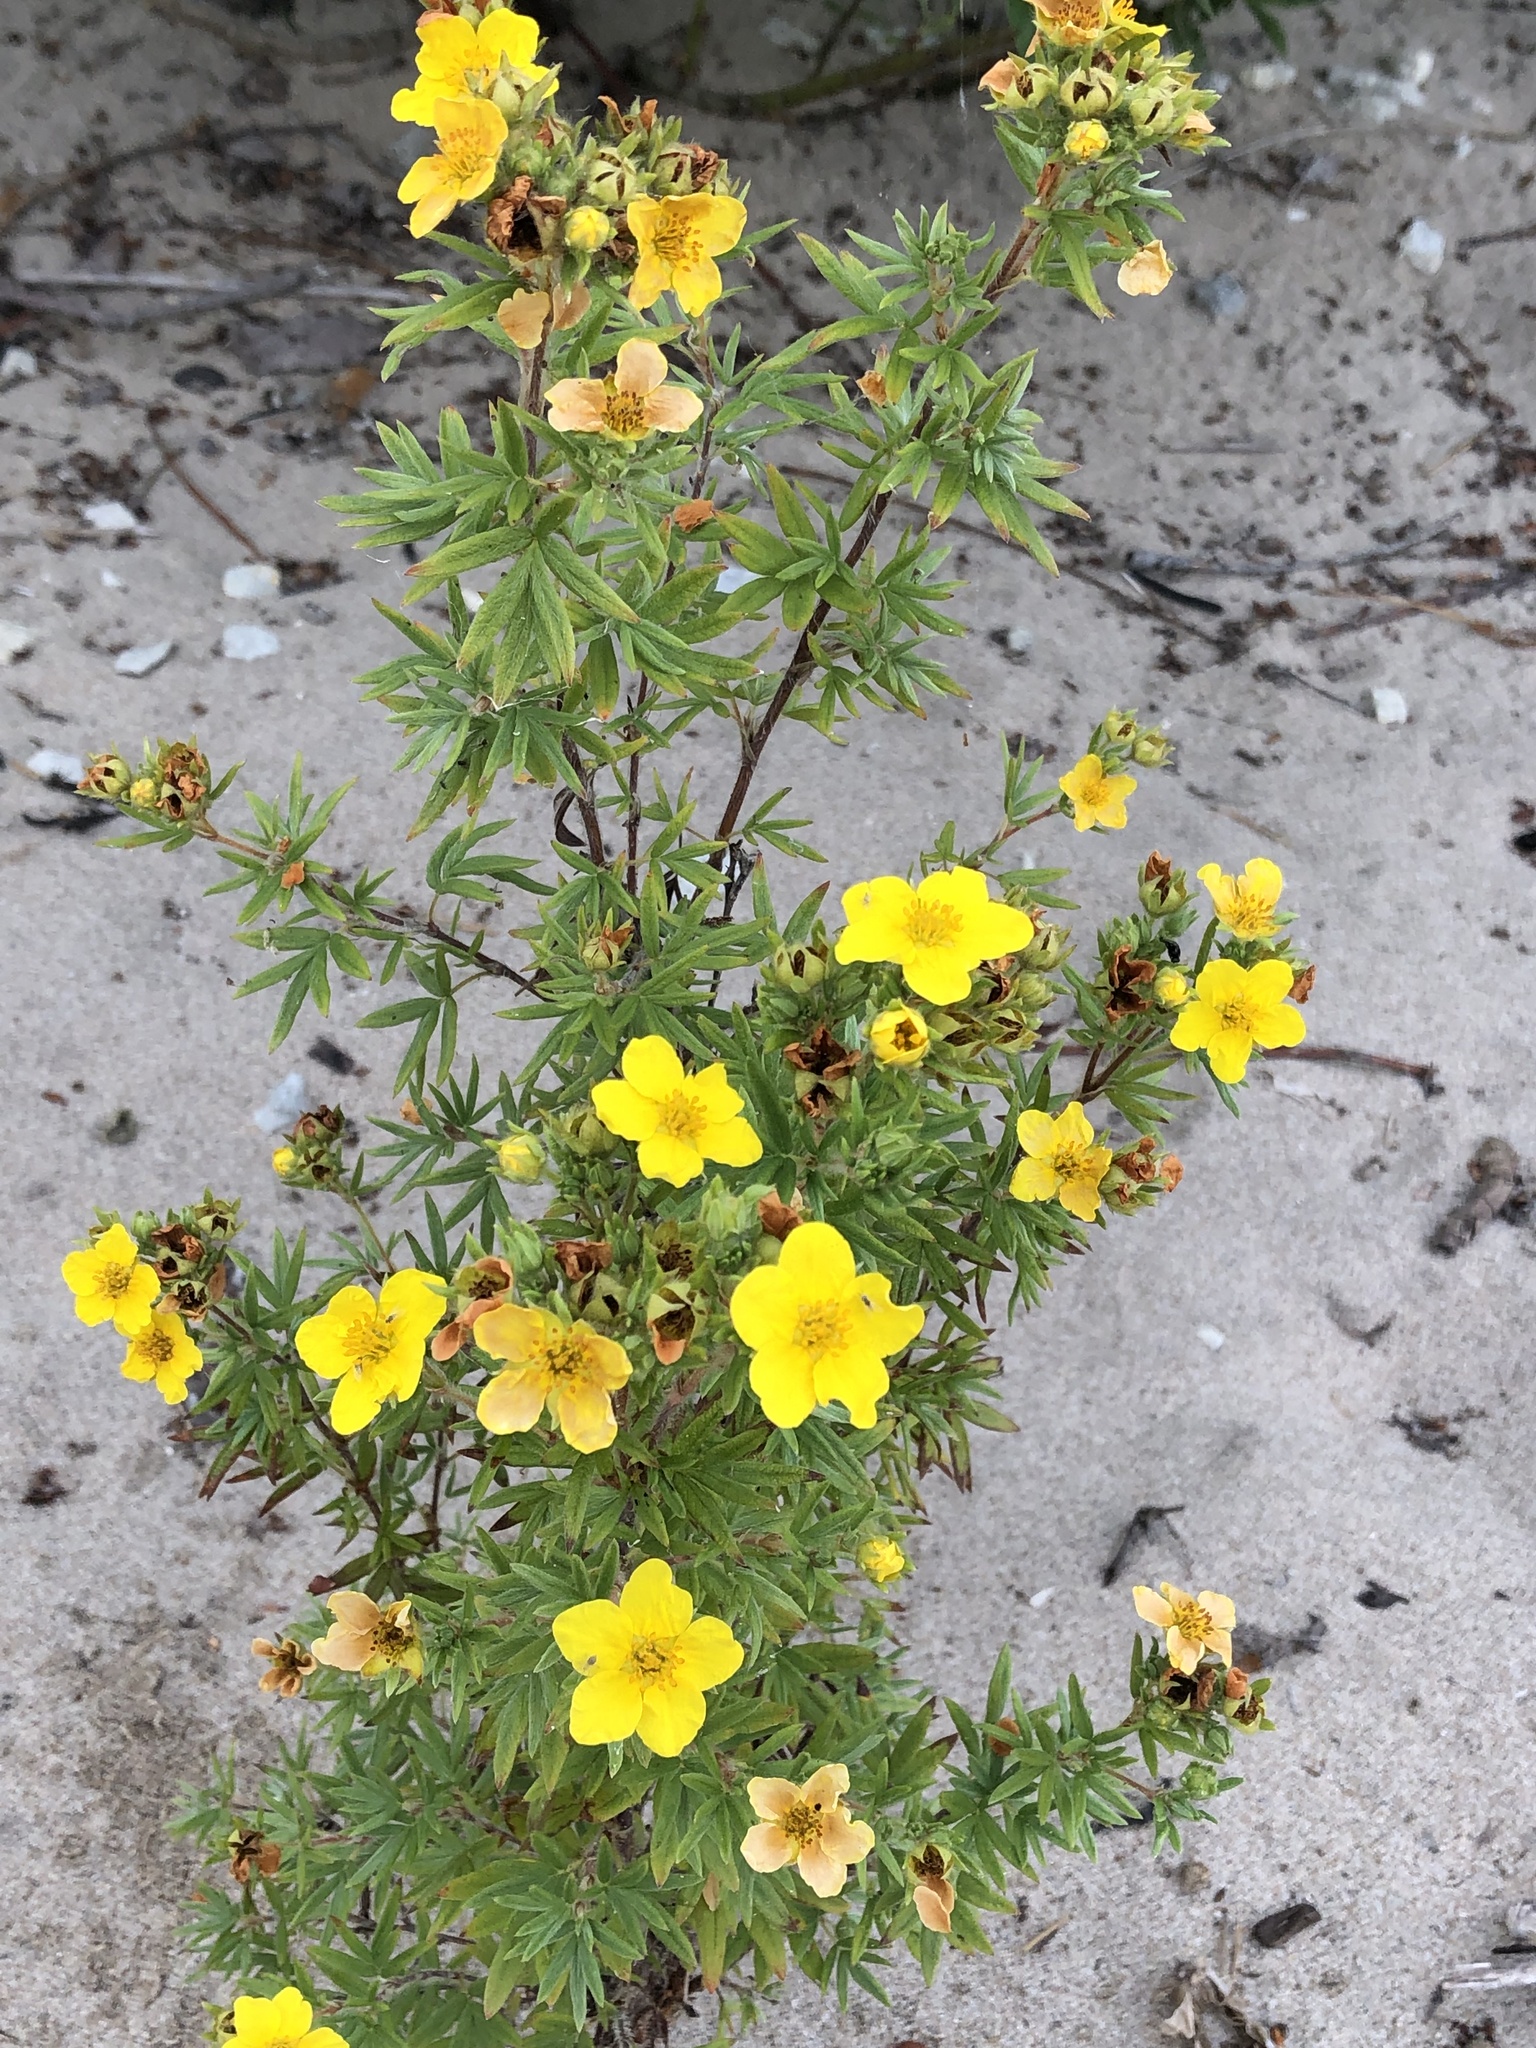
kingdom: Plantae
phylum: Tracheophyta
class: Magnoliopsida
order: Rosales
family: Rosaceae
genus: Dasiphora
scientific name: Dasiphora fruticosa
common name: Shrubby cinquefoil
